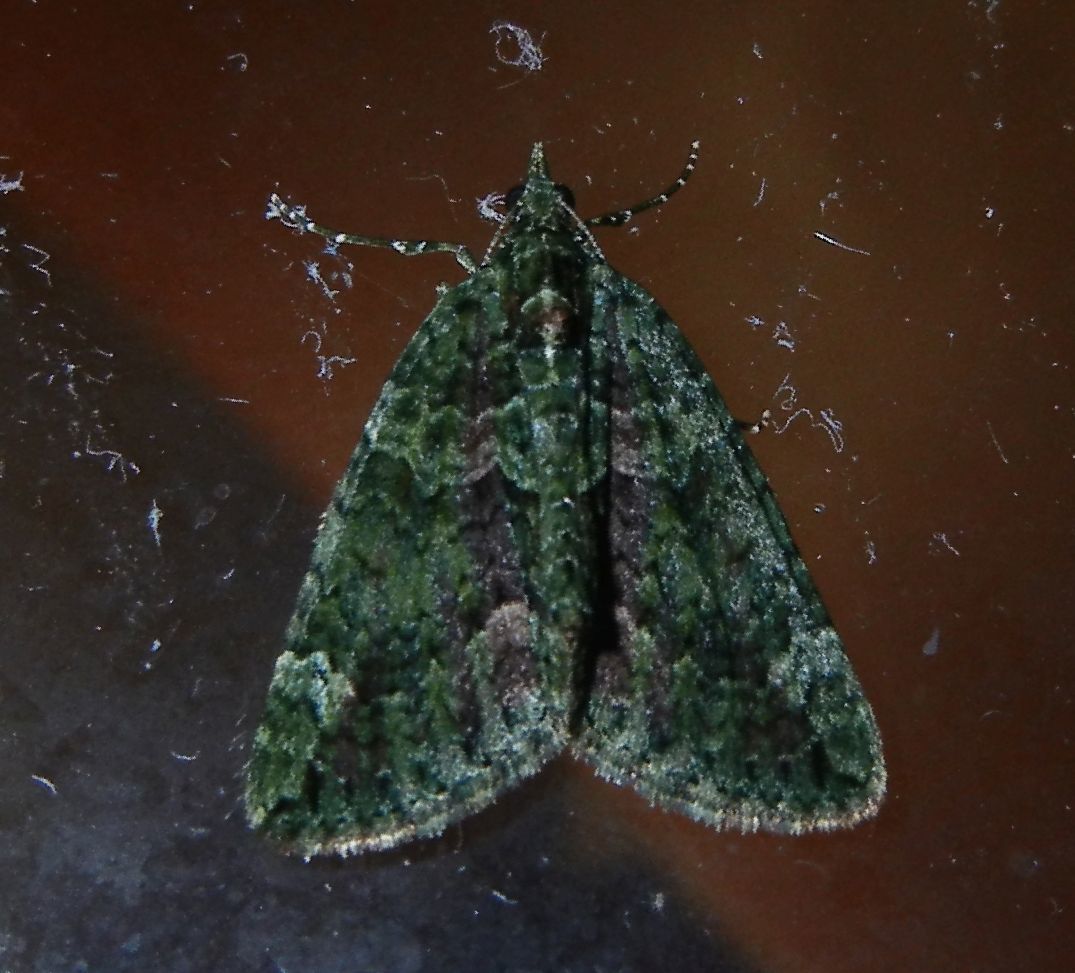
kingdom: Animalia
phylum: Arthropoda
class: Insecta
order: Lepidoptera
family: Geometridae
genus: Chloroclysta
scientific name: Chloroclysta siterata
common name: Red-green carpet
